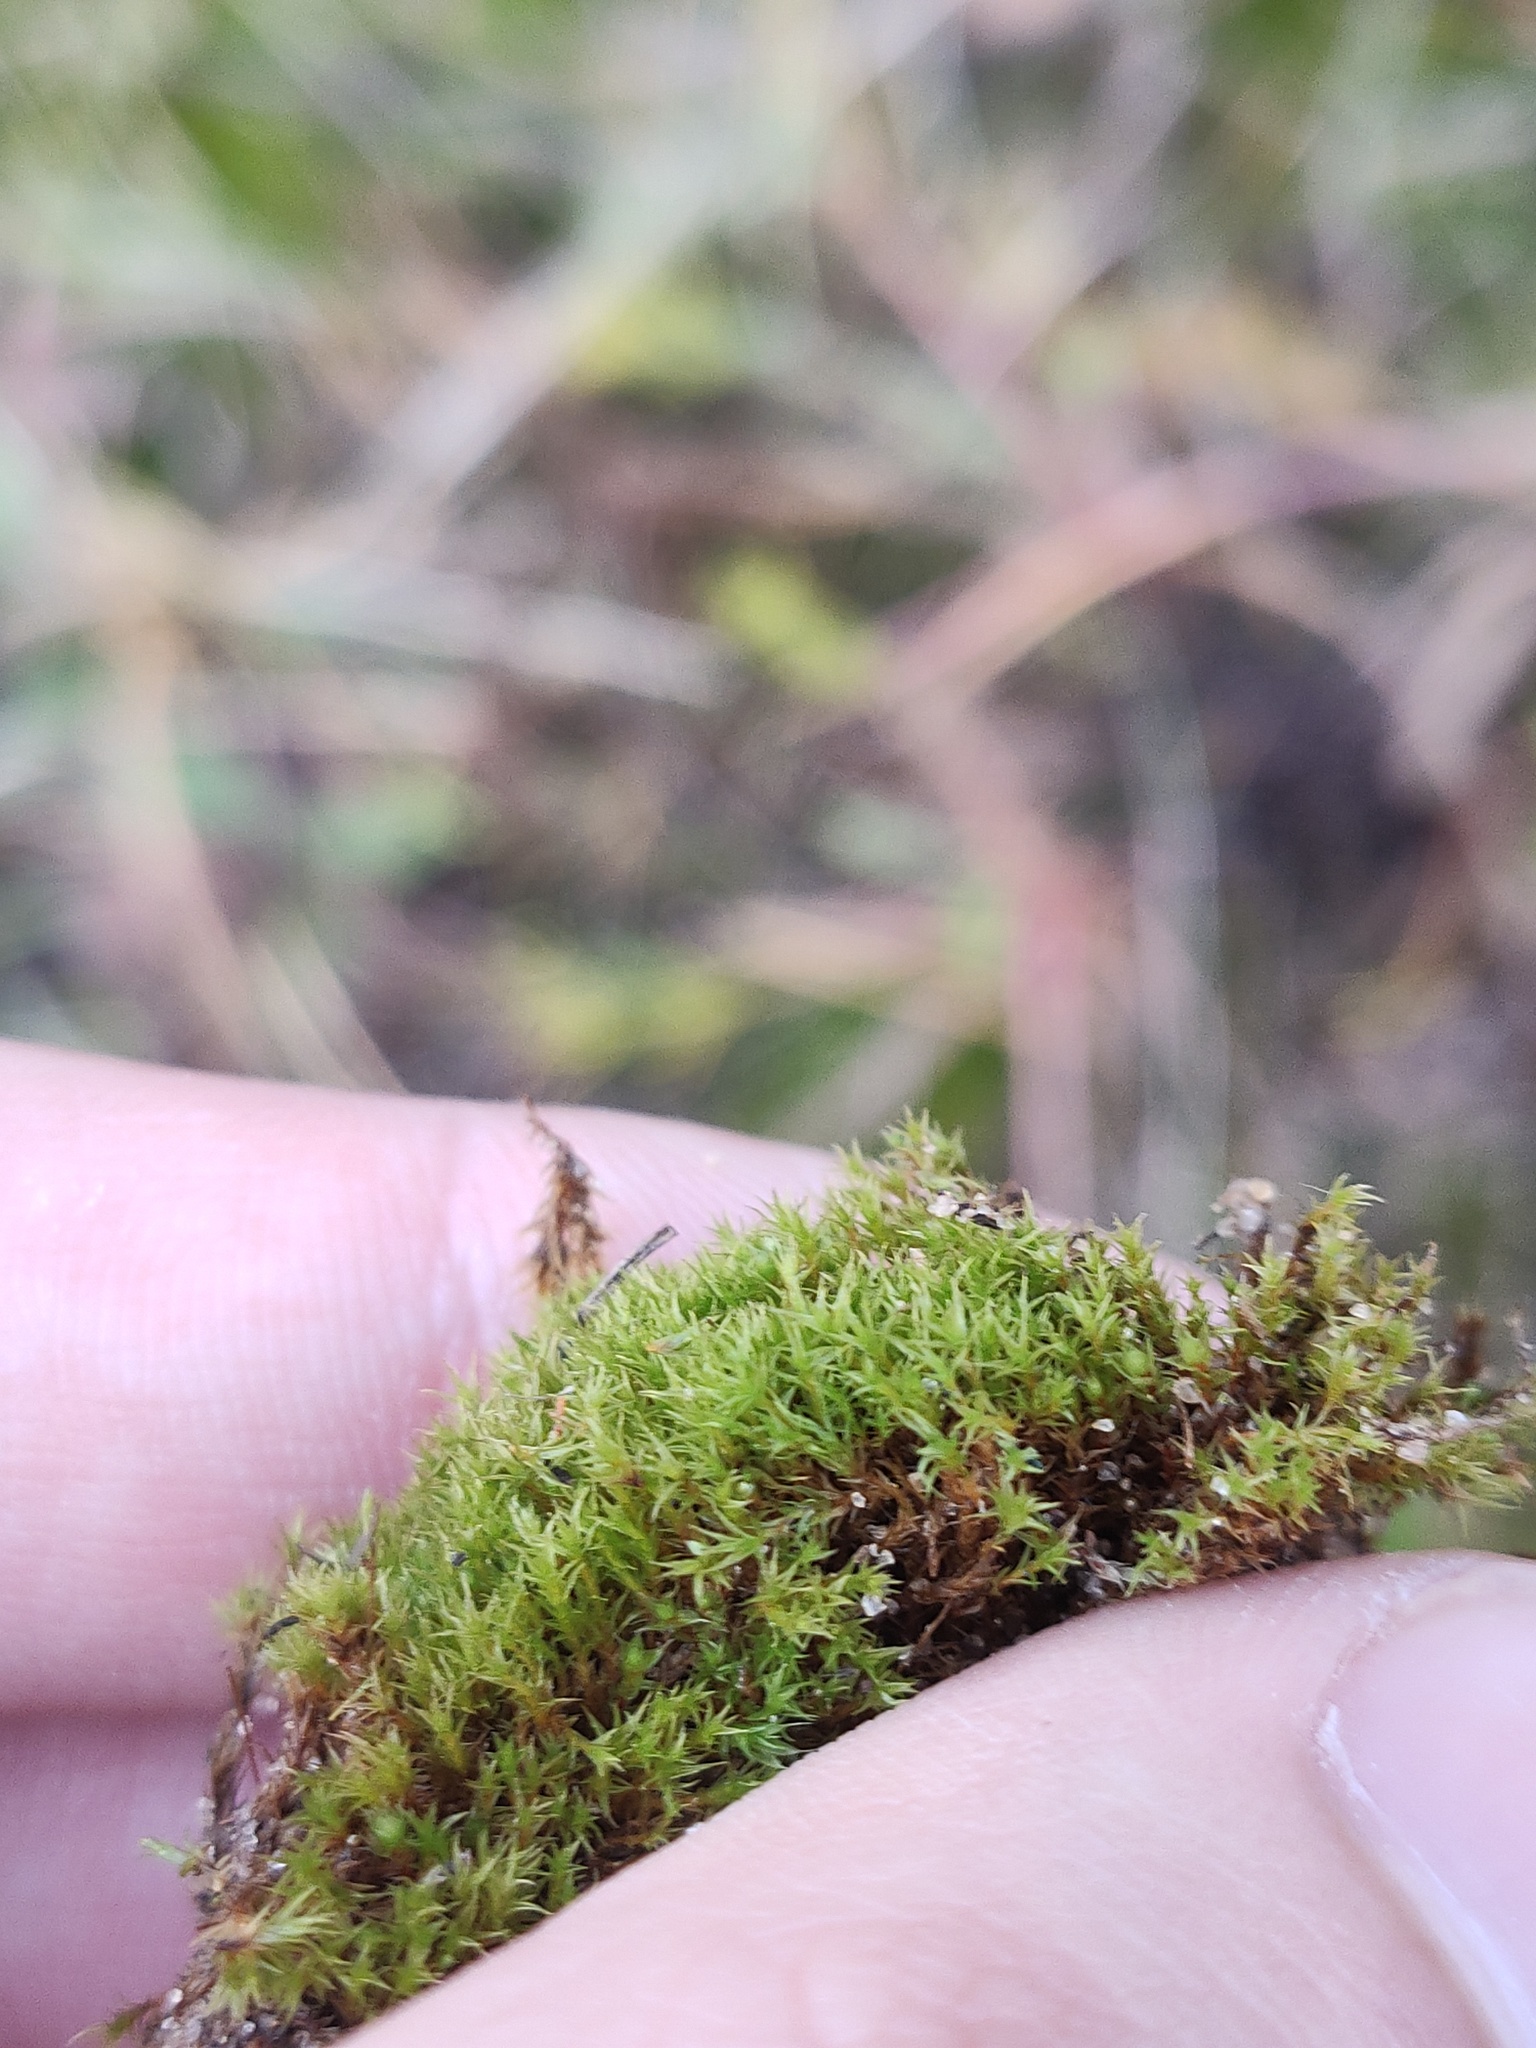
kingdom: Plantae
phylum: Bryophyta
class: Bryopsida
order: Dicranales
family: Ditrichaceae
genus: Ceratodon
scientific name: Ceratodon purpureus
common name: Redshank
